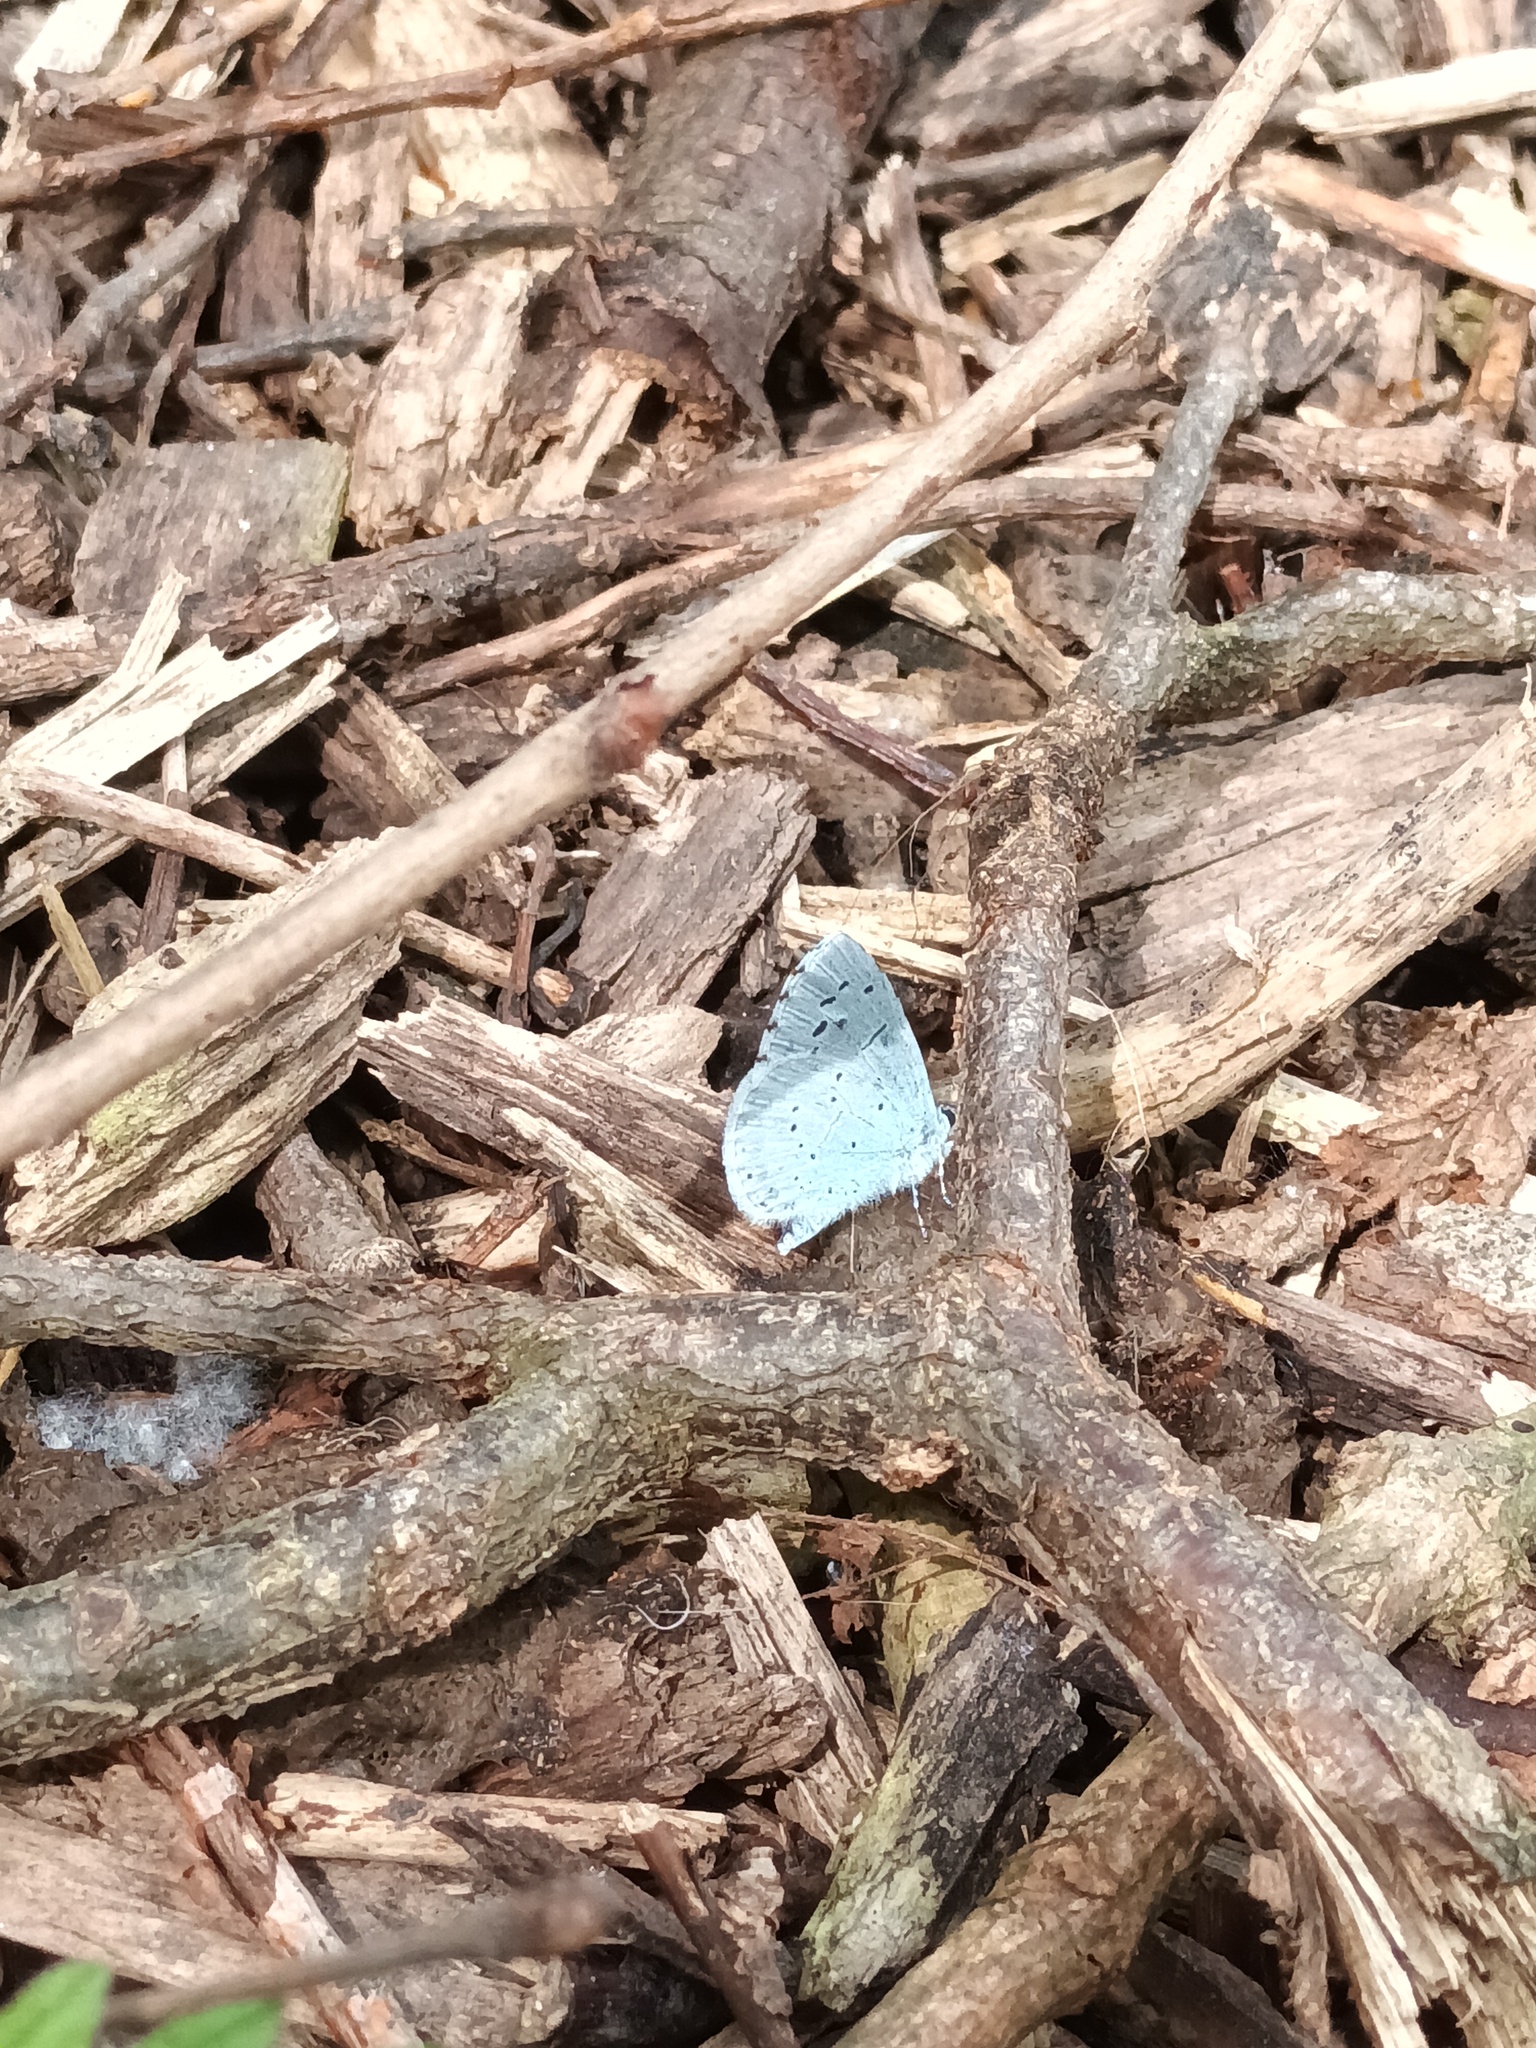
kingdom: Animalia
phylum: Arthropoda
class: Insecta
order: Lepidoptera
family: Lycaenidae
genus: Celastrina
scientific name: Celastrina argiolus
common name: Holly blue
